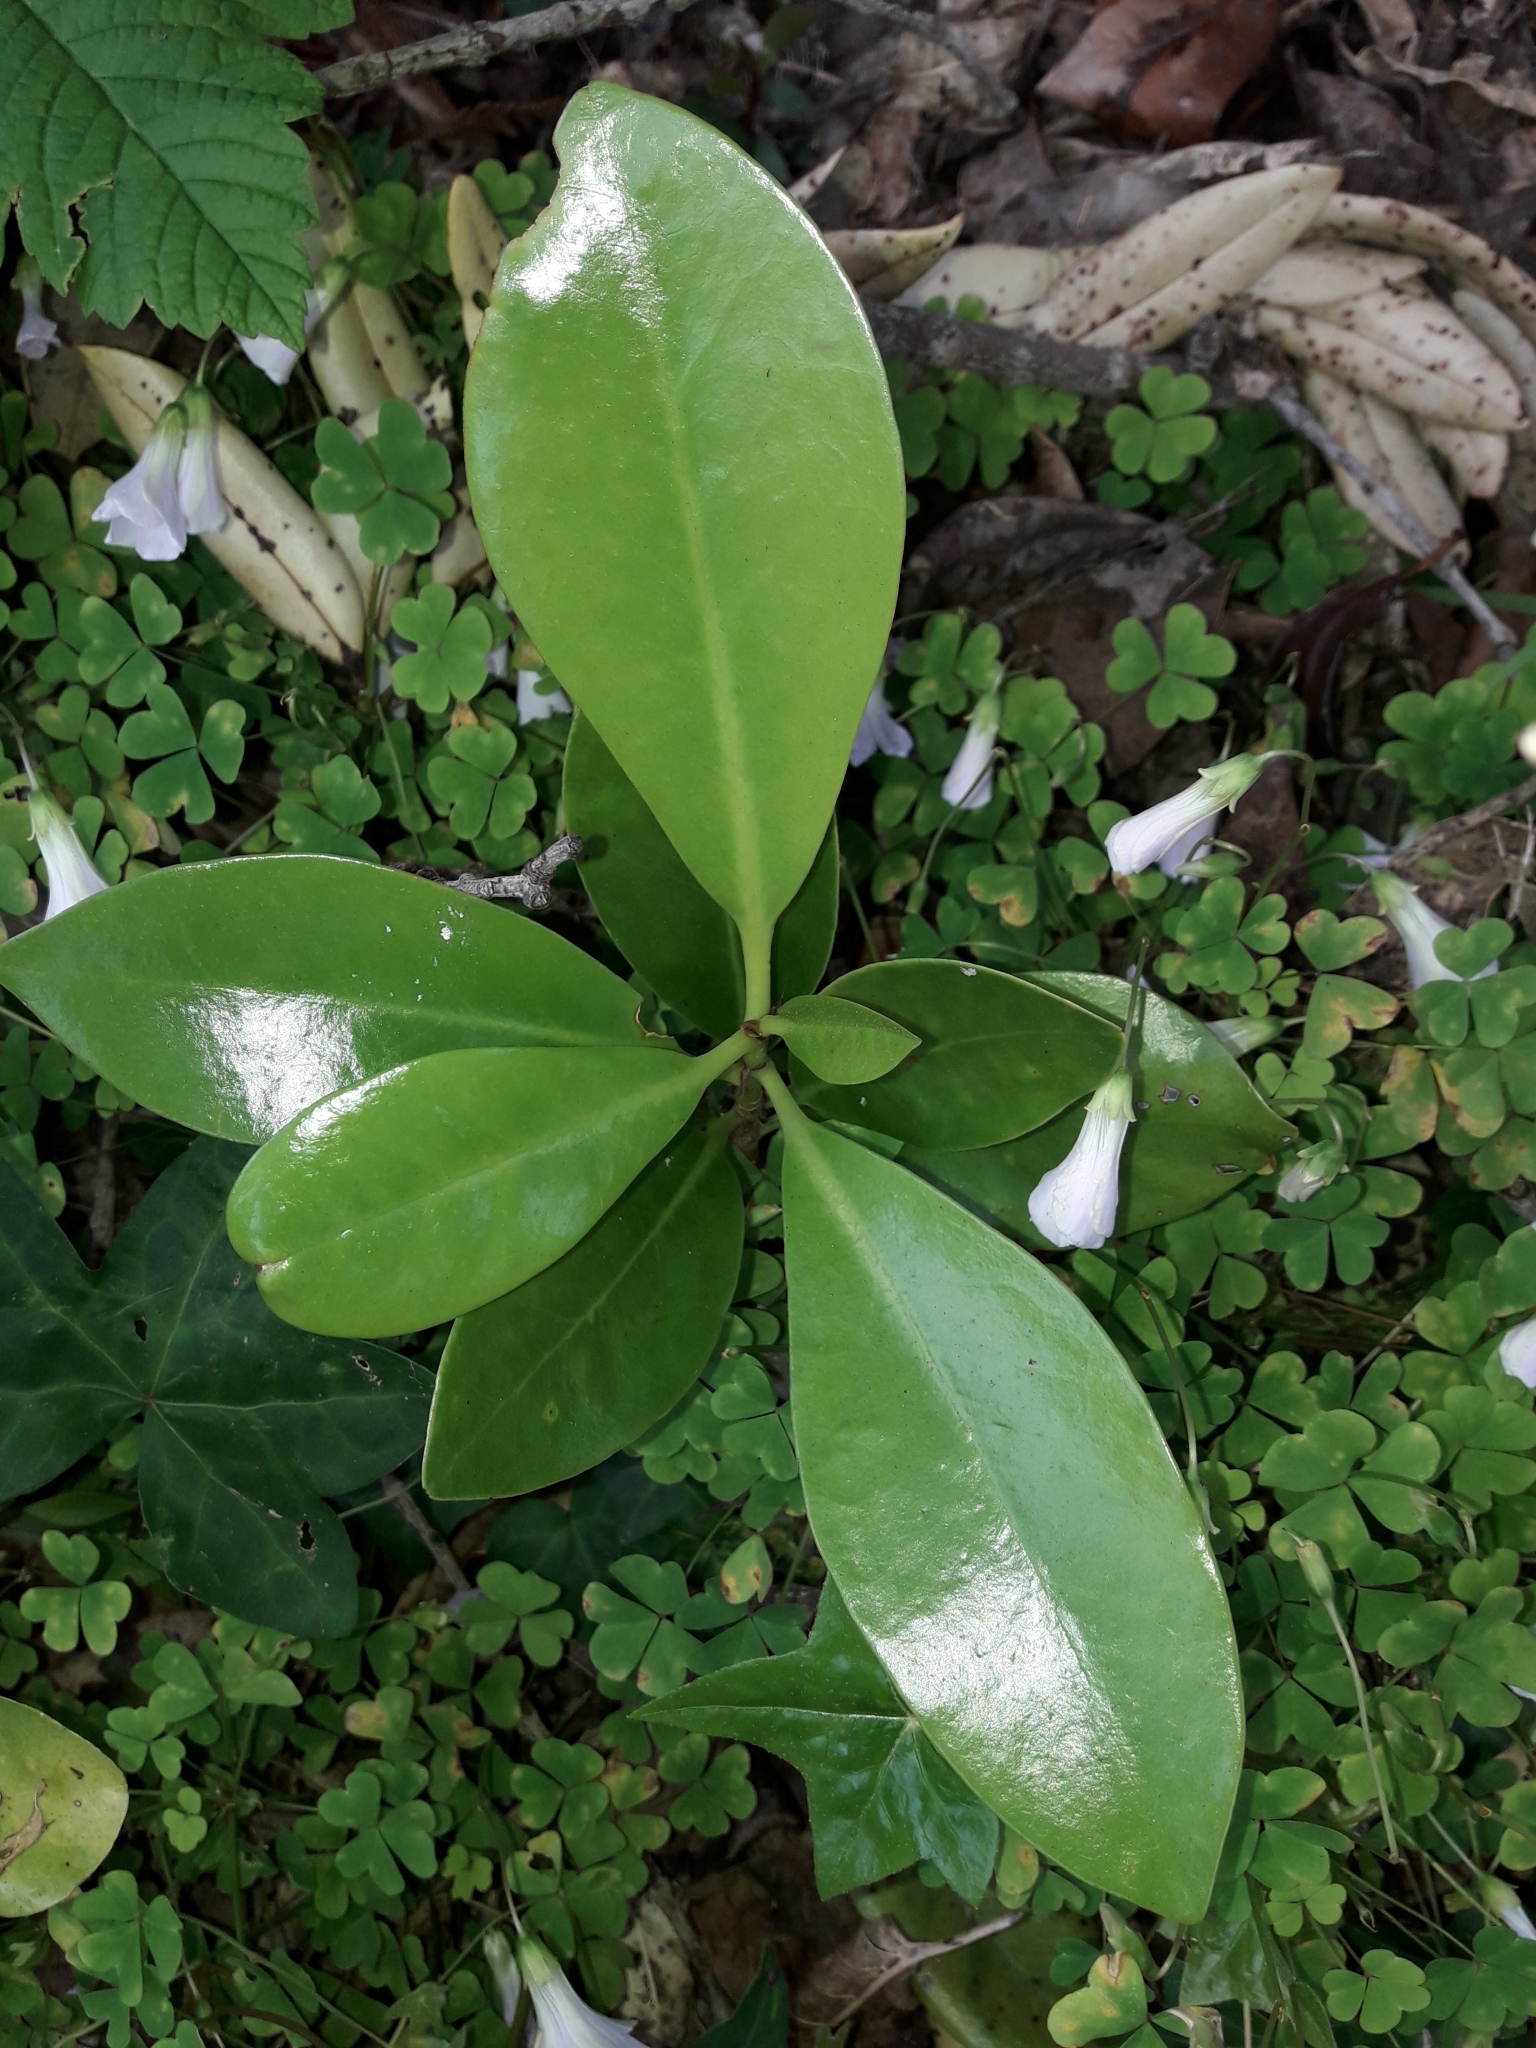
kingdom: Plantae
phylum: Tracheophyta
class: Magnoliopsida
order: Cucurbitales
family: Corynocarpaceae
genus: Corynocarpus
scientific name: Corynocarpus laevigatus
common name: New zealand laurel
